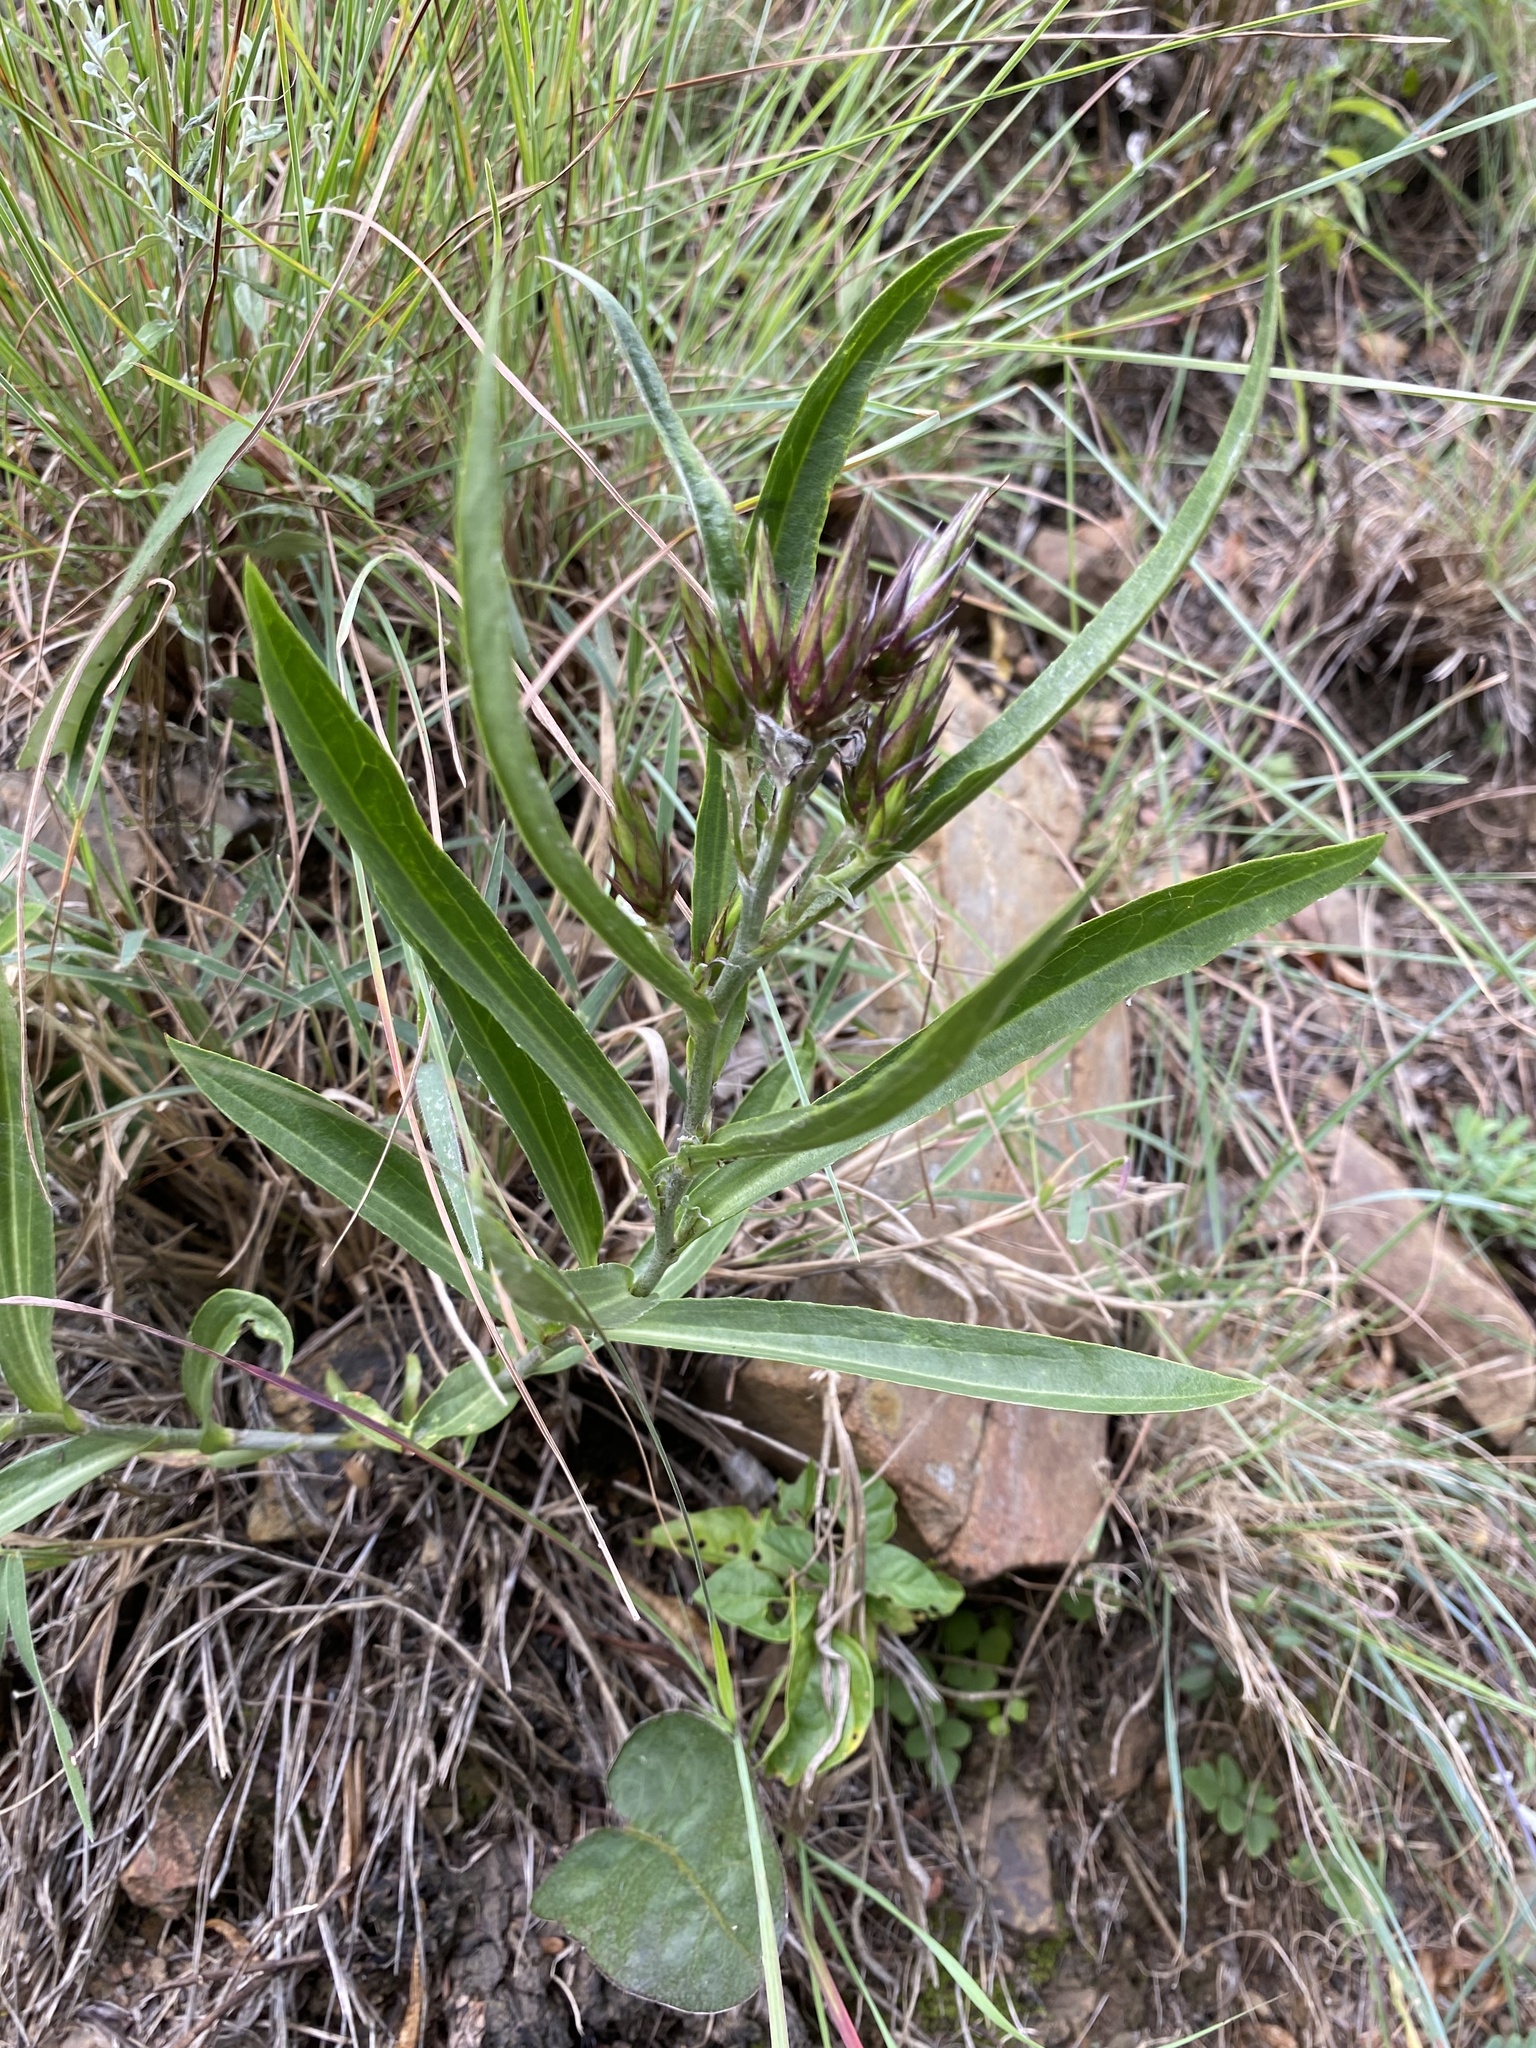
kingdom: Plantae
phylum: Tracheophyta
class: Magnoliopsida
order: Asterales
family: Asteraceae
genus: Macledium
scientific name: Macledium zeyheri
